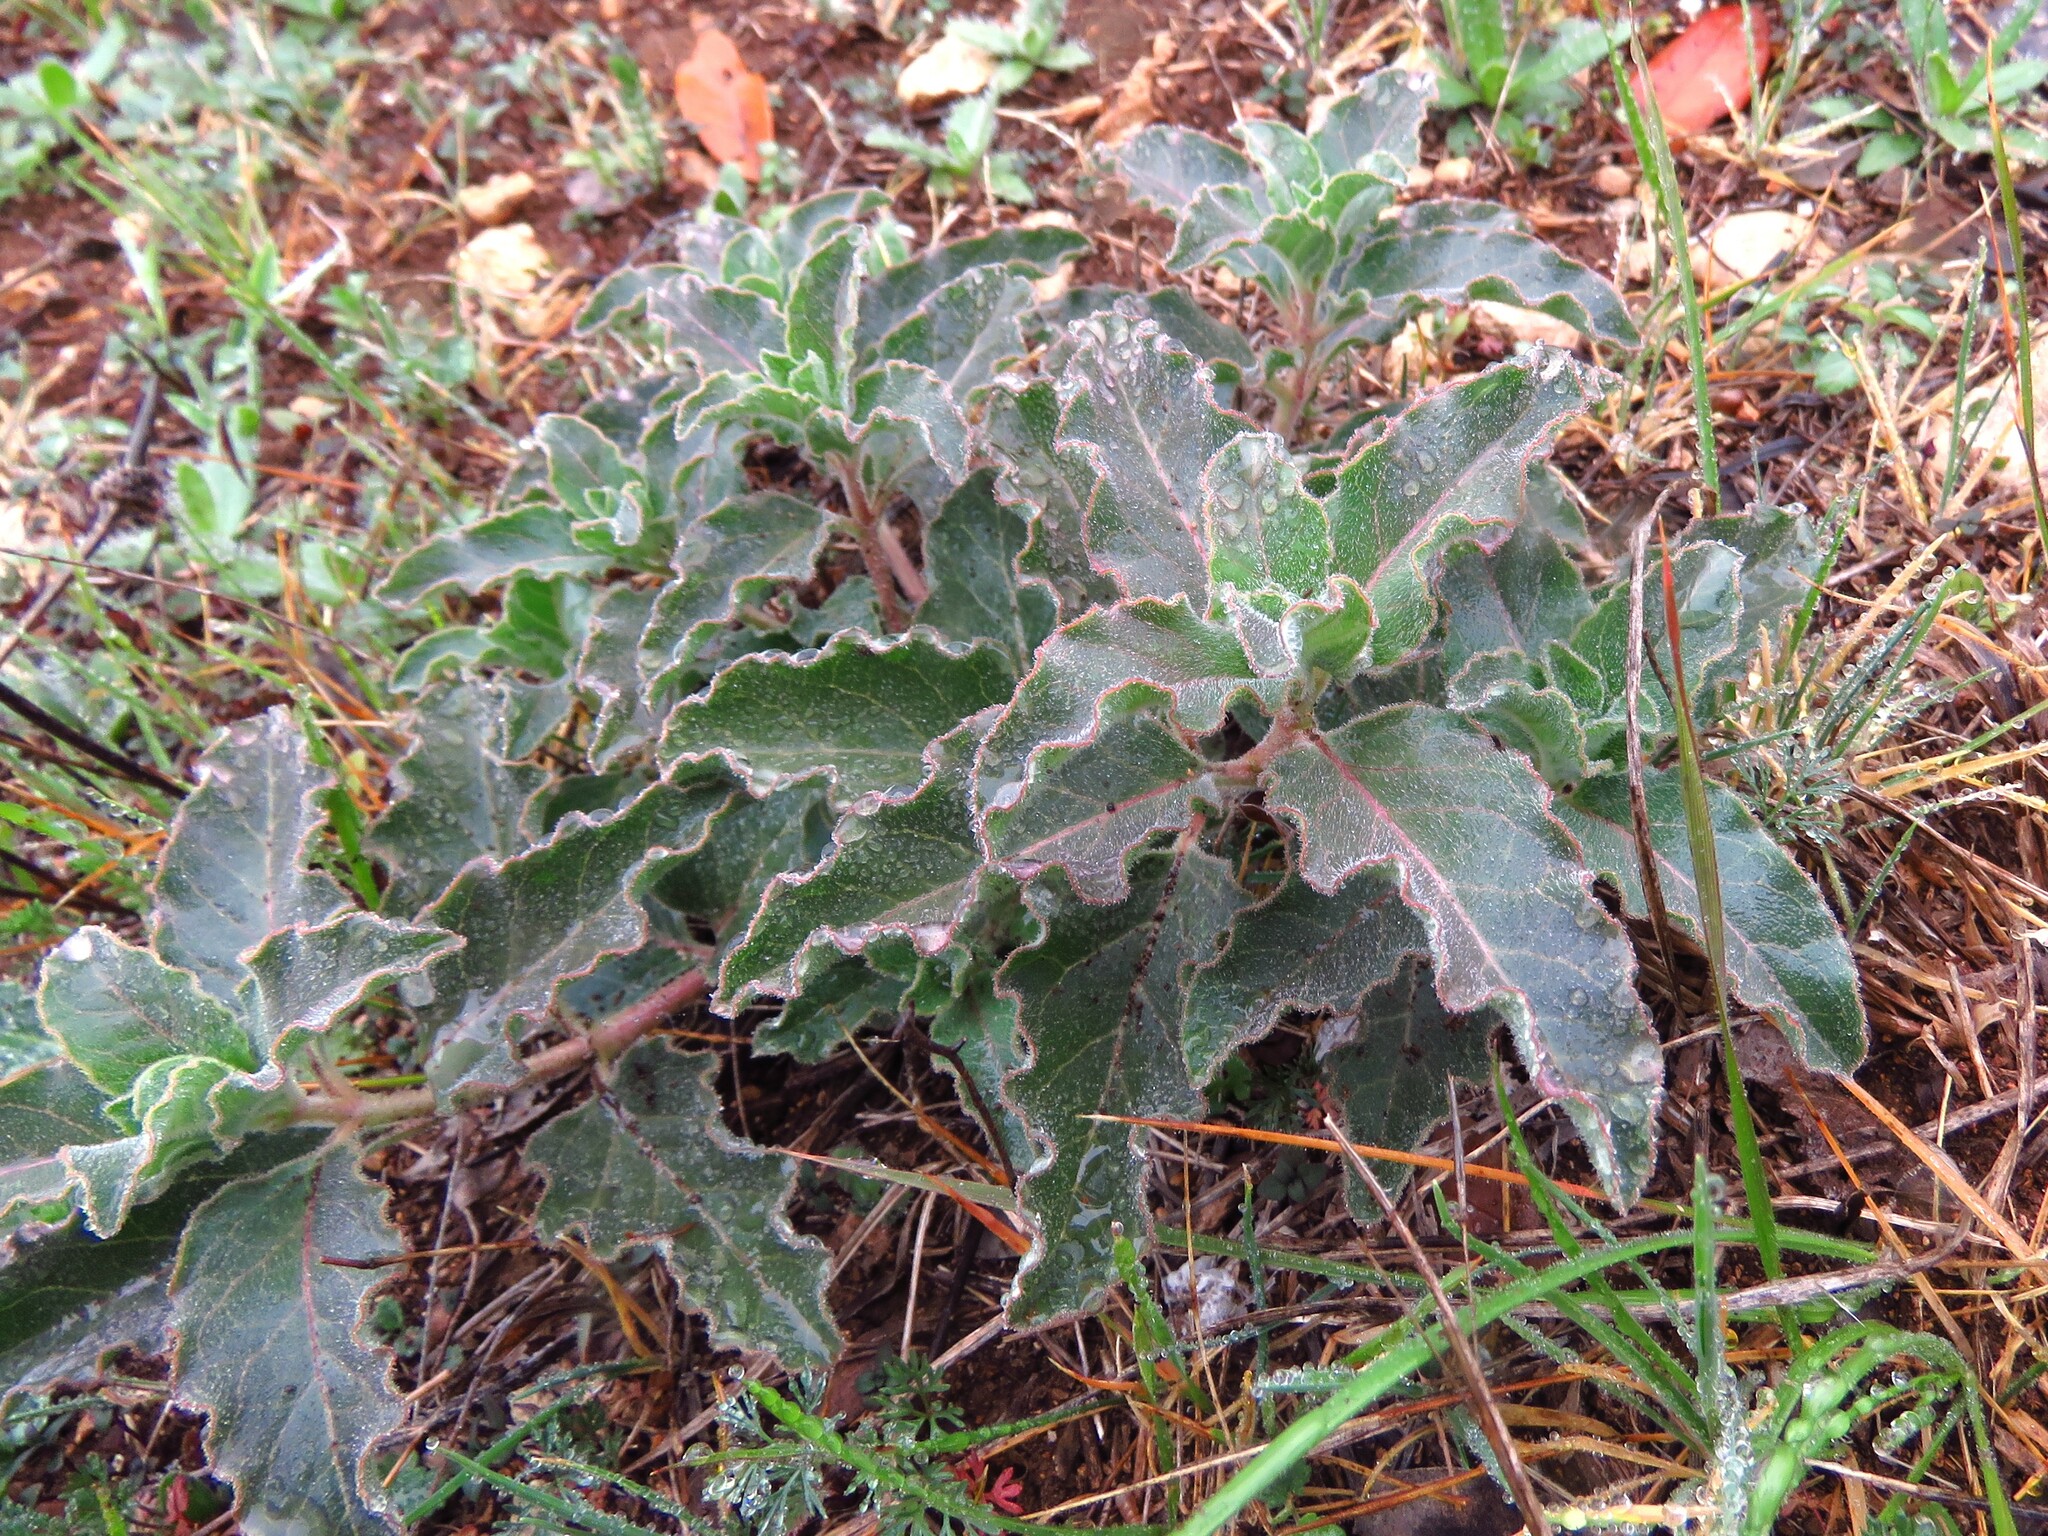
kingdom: Plantae
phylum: Tracheophyta
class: Magnoliopsida
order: Gentianales
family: Apocynaceae
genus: Asclepias
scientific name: Asclepias oenotheroides
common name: Zizotes milkweed
